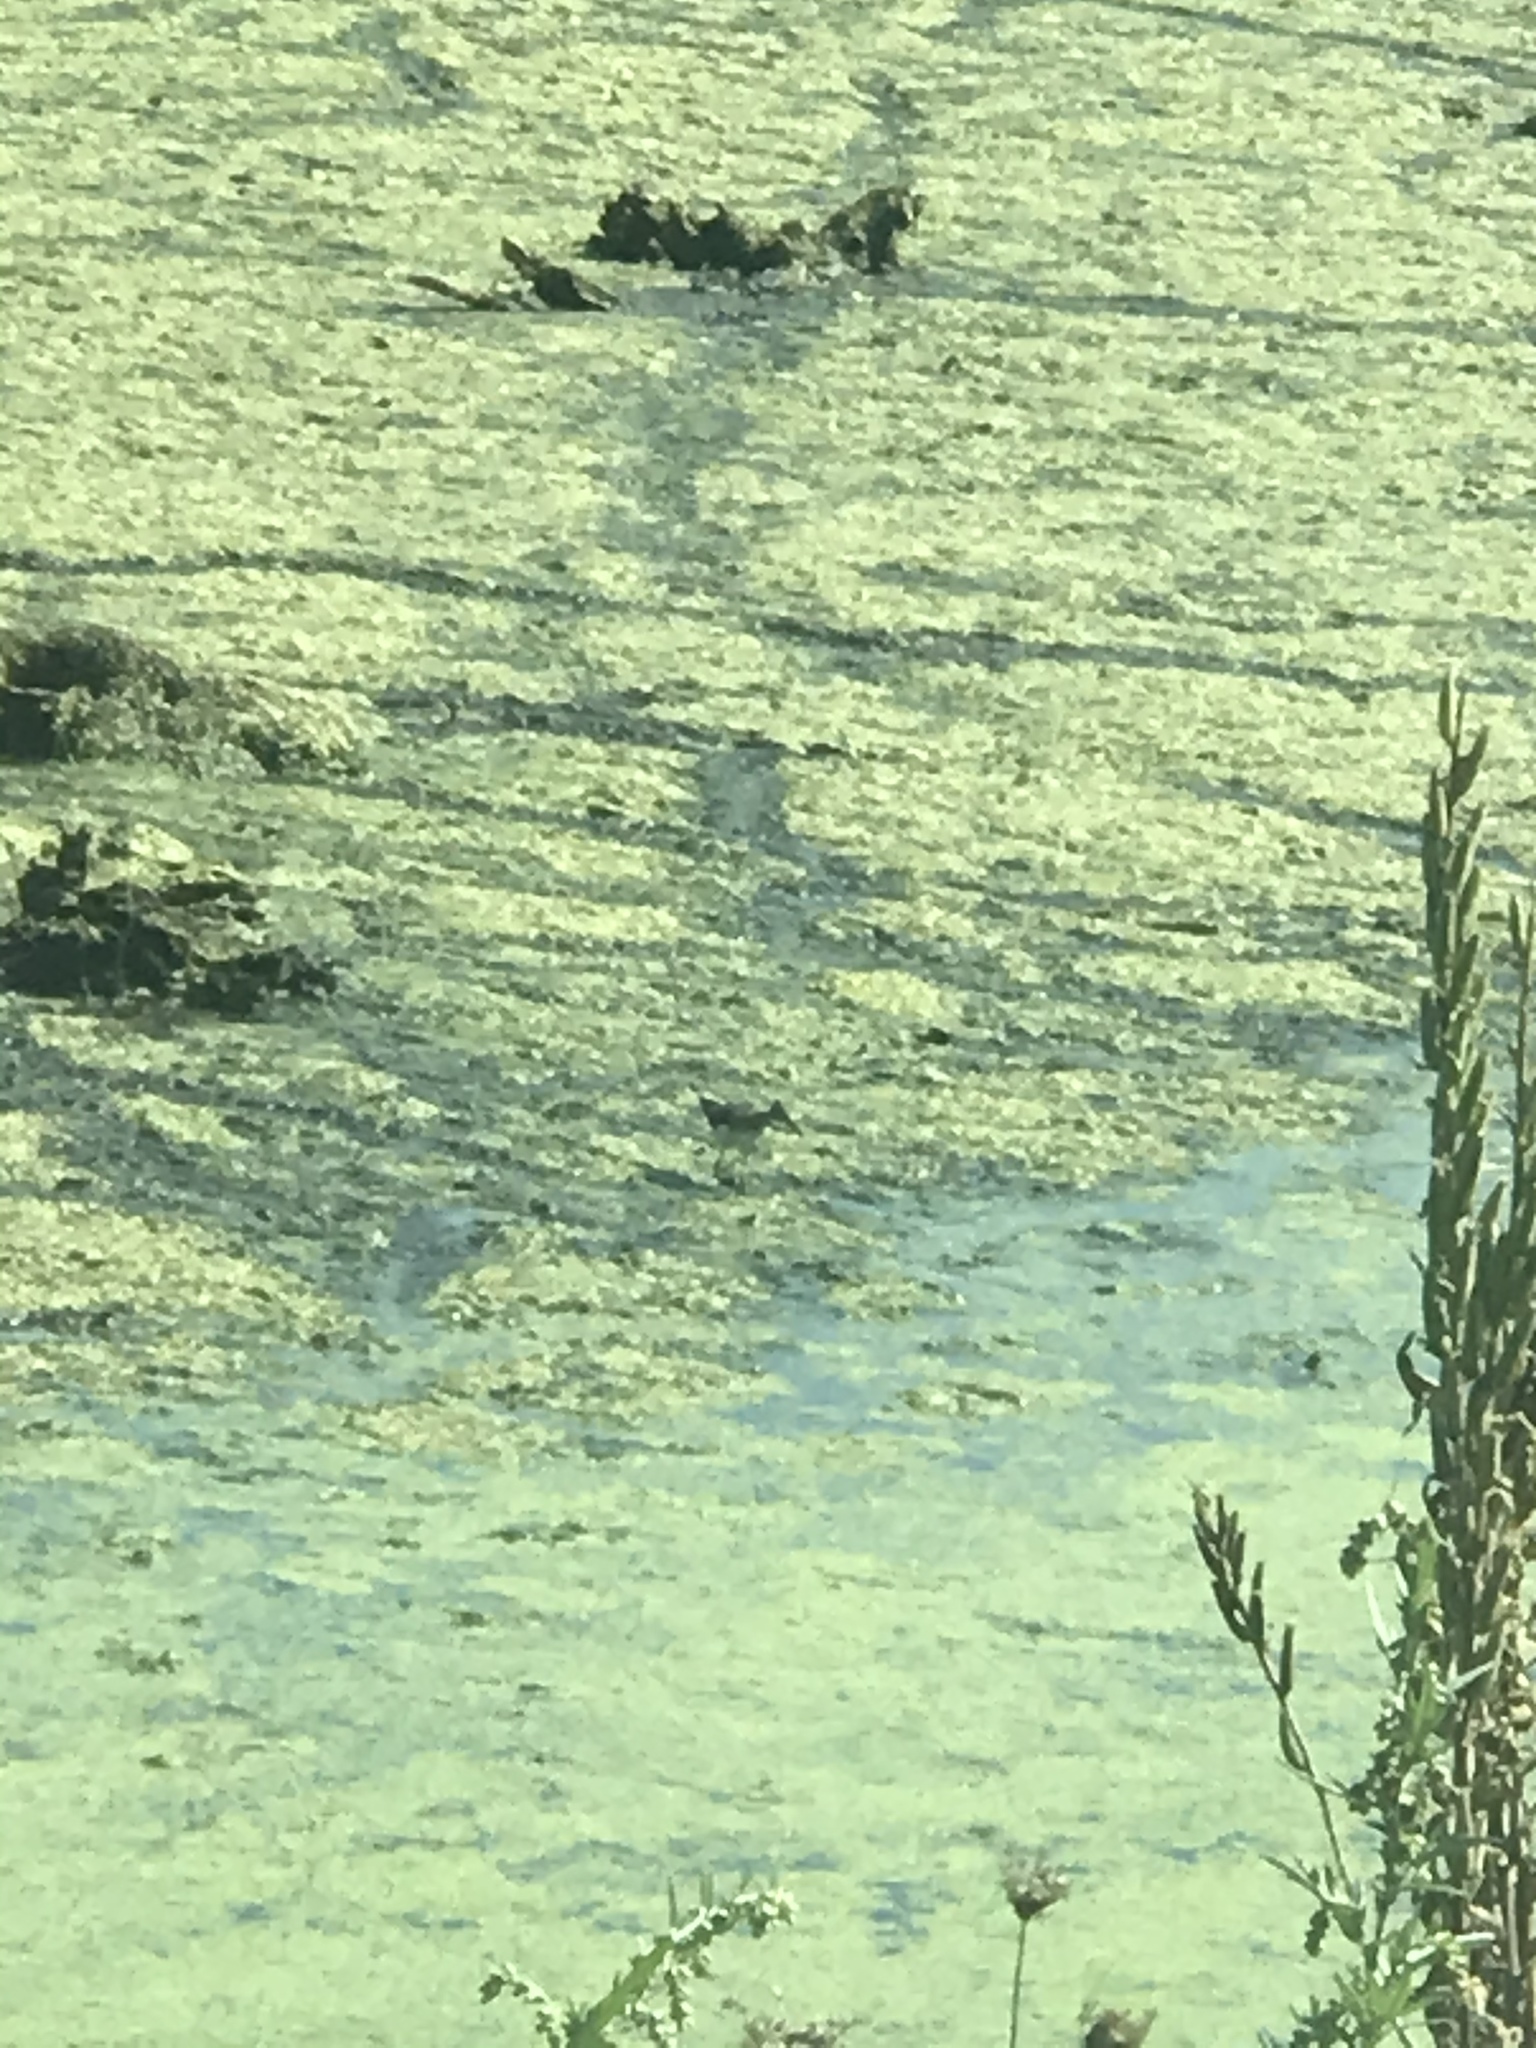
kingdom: Animalia
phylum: Chordata
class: Aves
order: Charadriiformes
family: Scolopacidae
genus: Actitis
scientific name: Actitis macularius
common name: Spotted sandpiper
